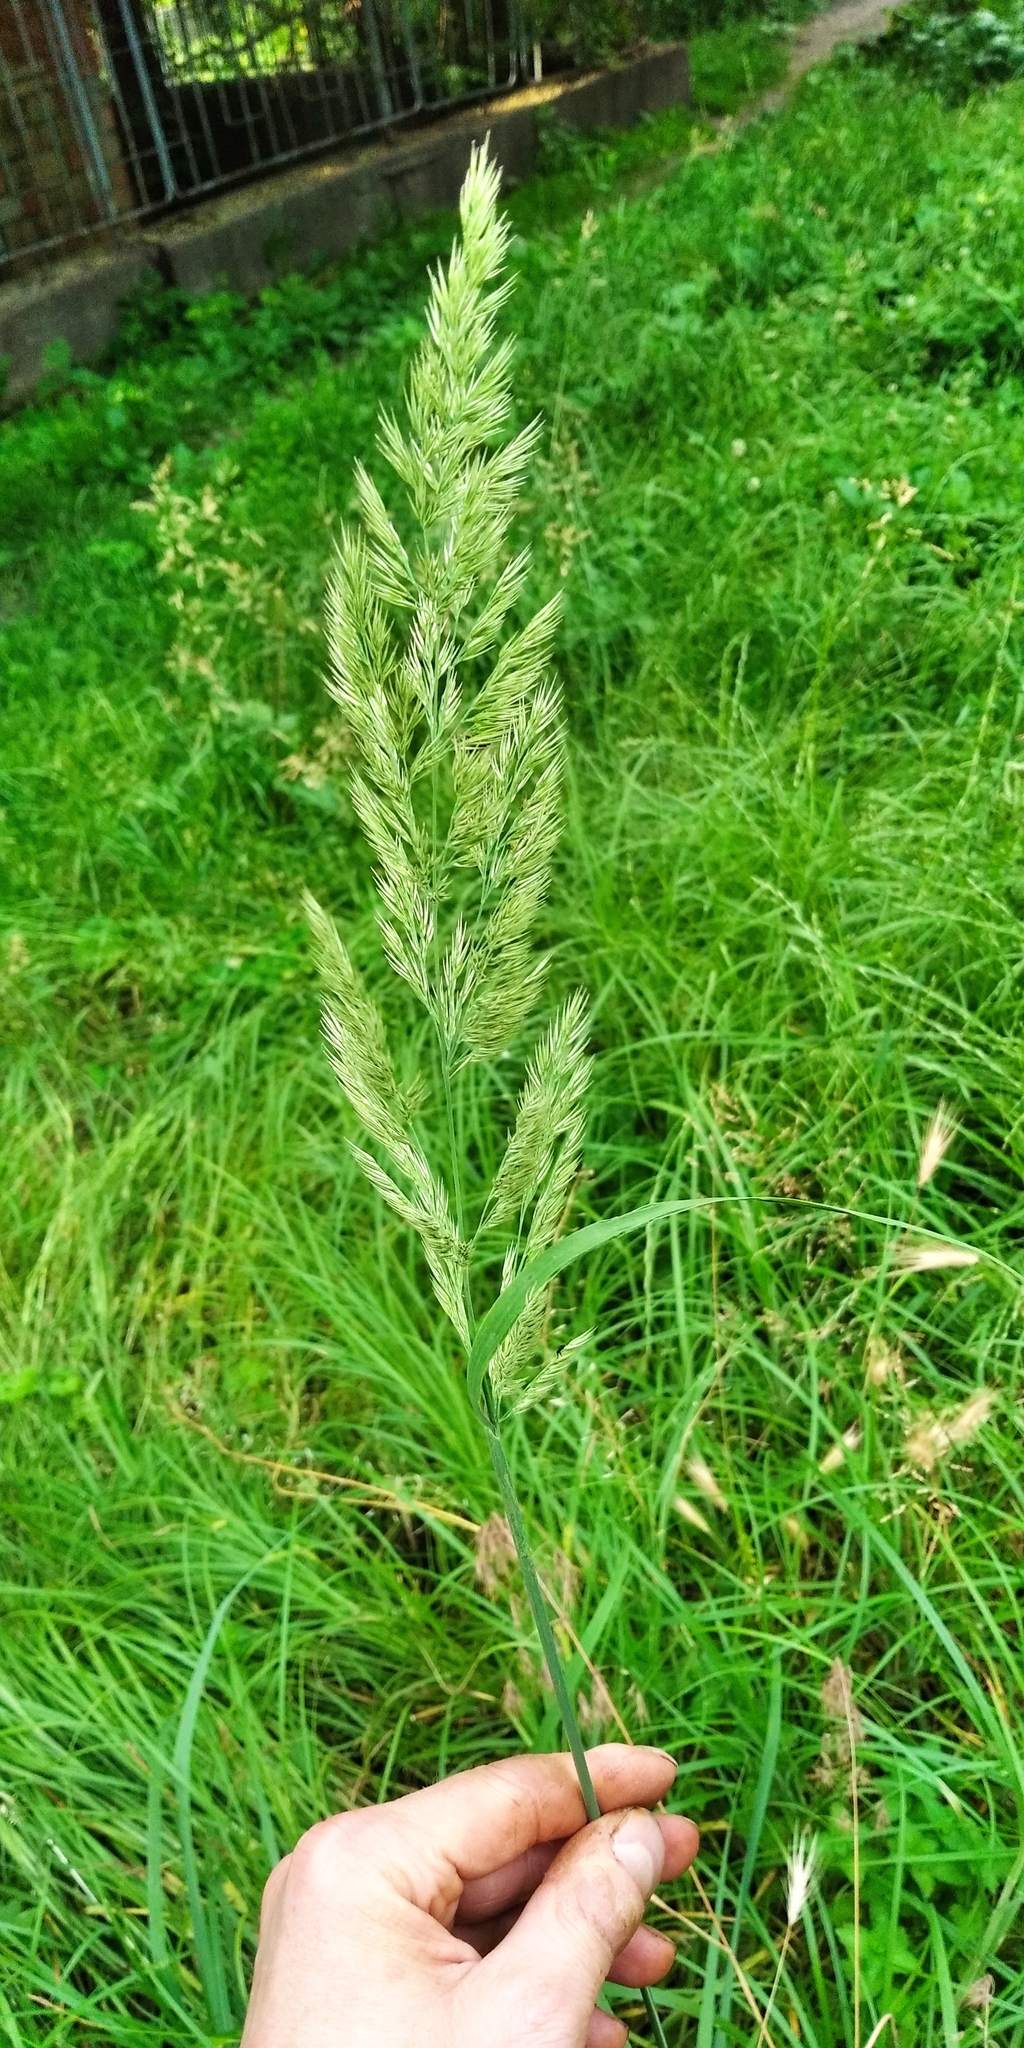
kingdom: Plantae
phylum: Tracheophyta
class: Liliopsida
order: Poales
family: Poaceae
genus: Calamagrostis
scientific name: Calamagrostis epigejos
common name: Wood small-reed
